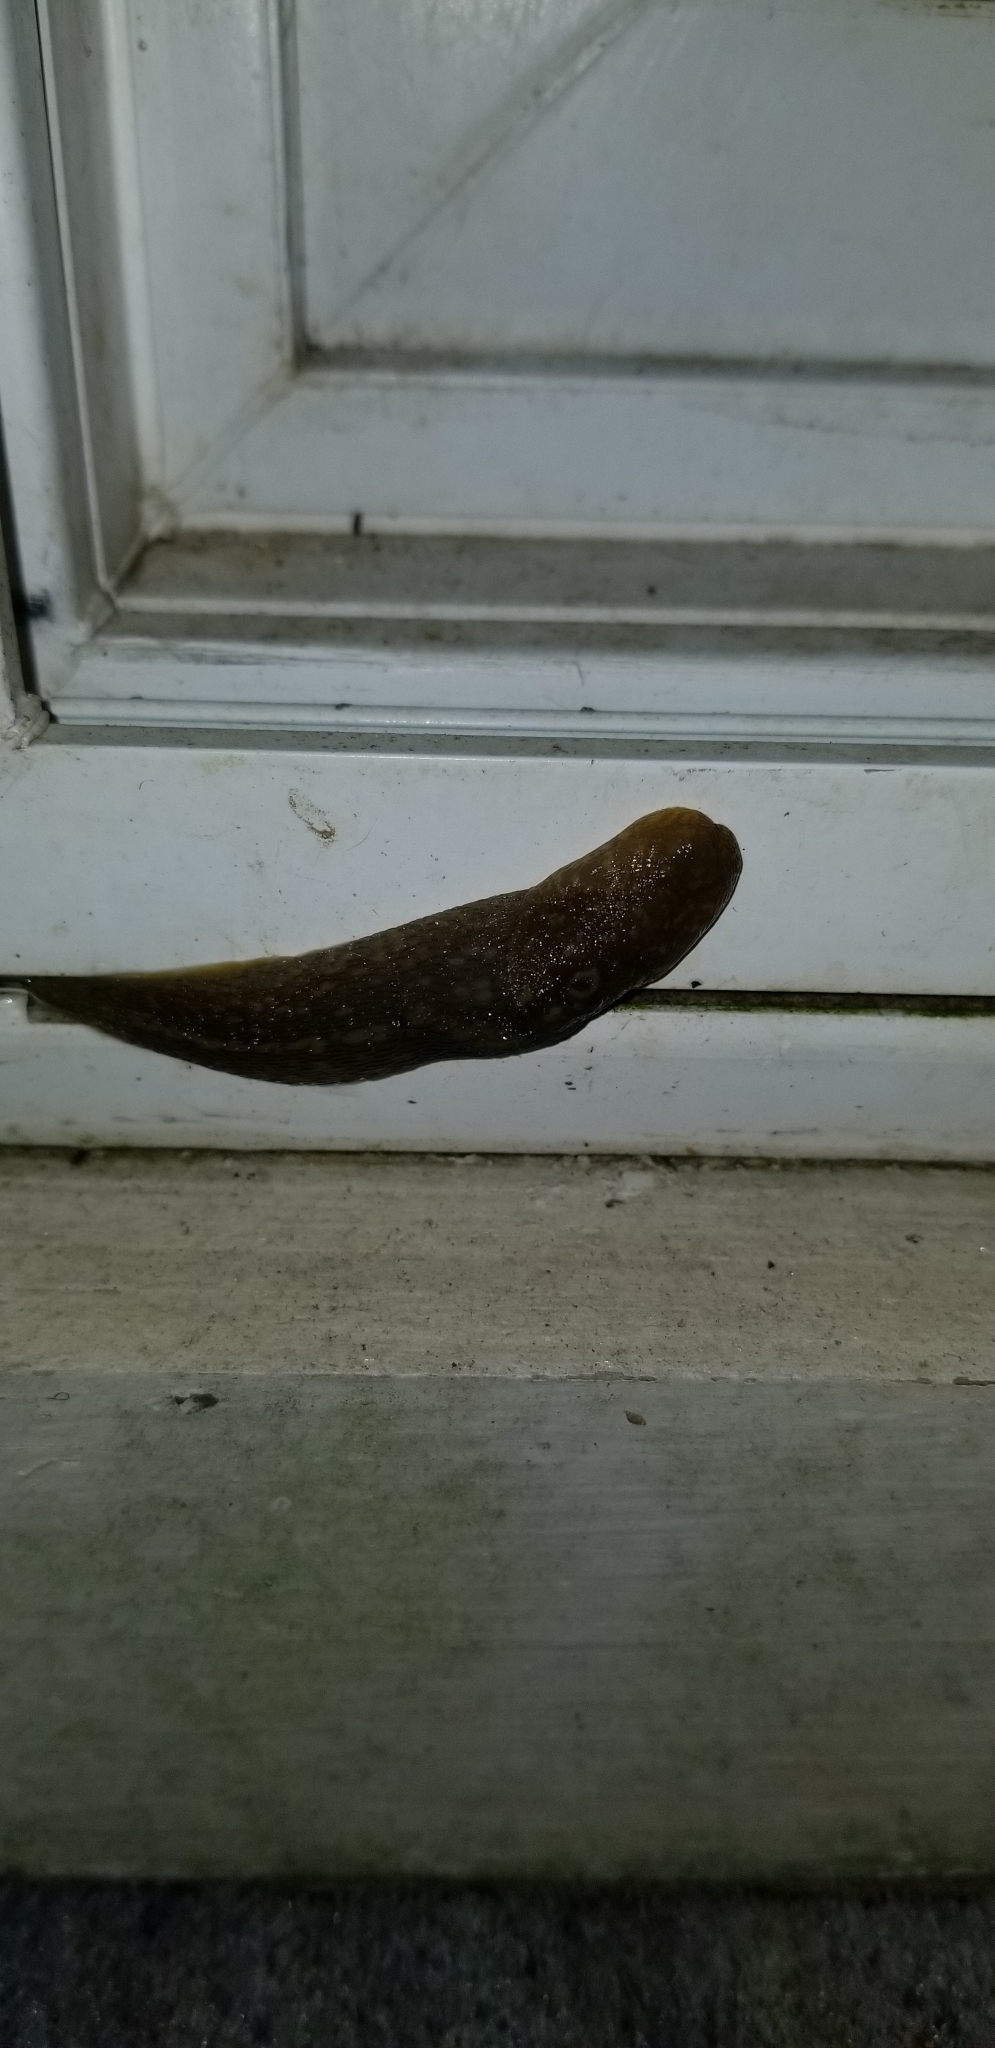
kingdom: Animalia
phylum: Mollusca
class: Gastropoda
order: Stylommatophora
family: Limacidae
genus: Limacus
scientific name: Limacus flavus
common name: Yellow gardenslug
